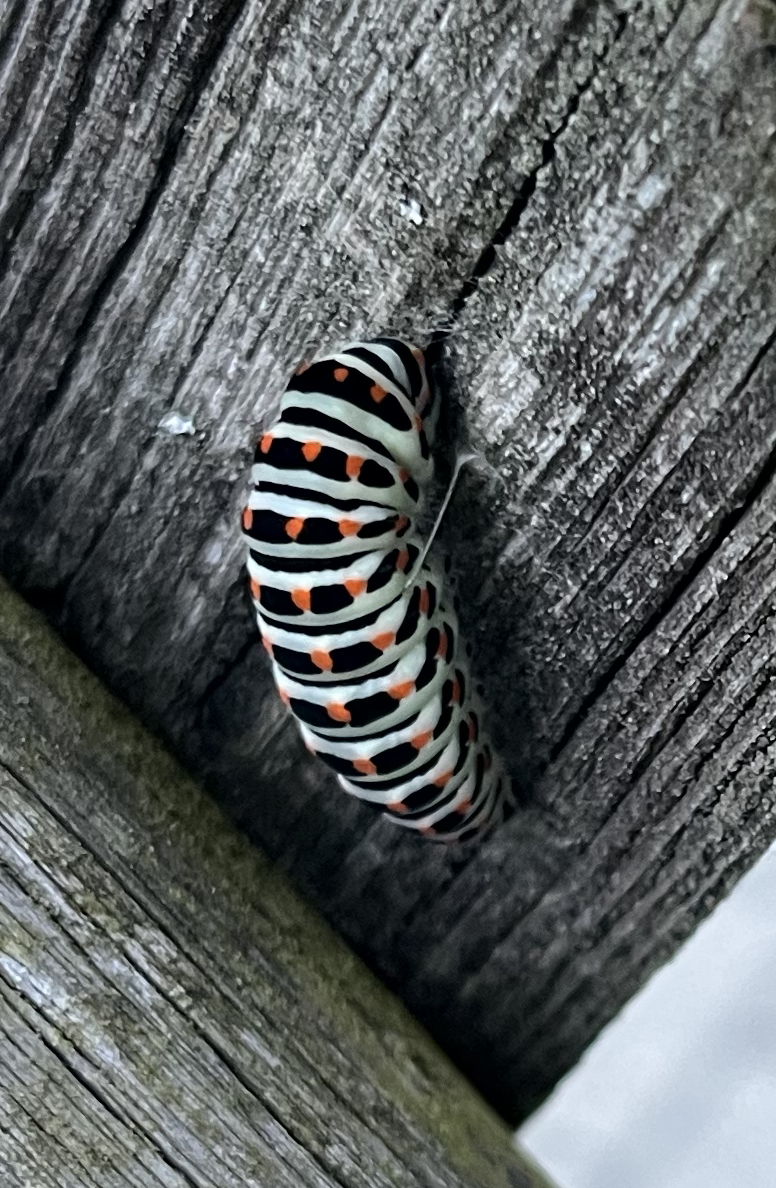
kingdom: Animalia
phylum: Arthropoda
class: Insecta
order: Lepidoptera
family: Papilionidae
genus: Papilio
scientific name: Papilio machaon
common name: Swallowtail
